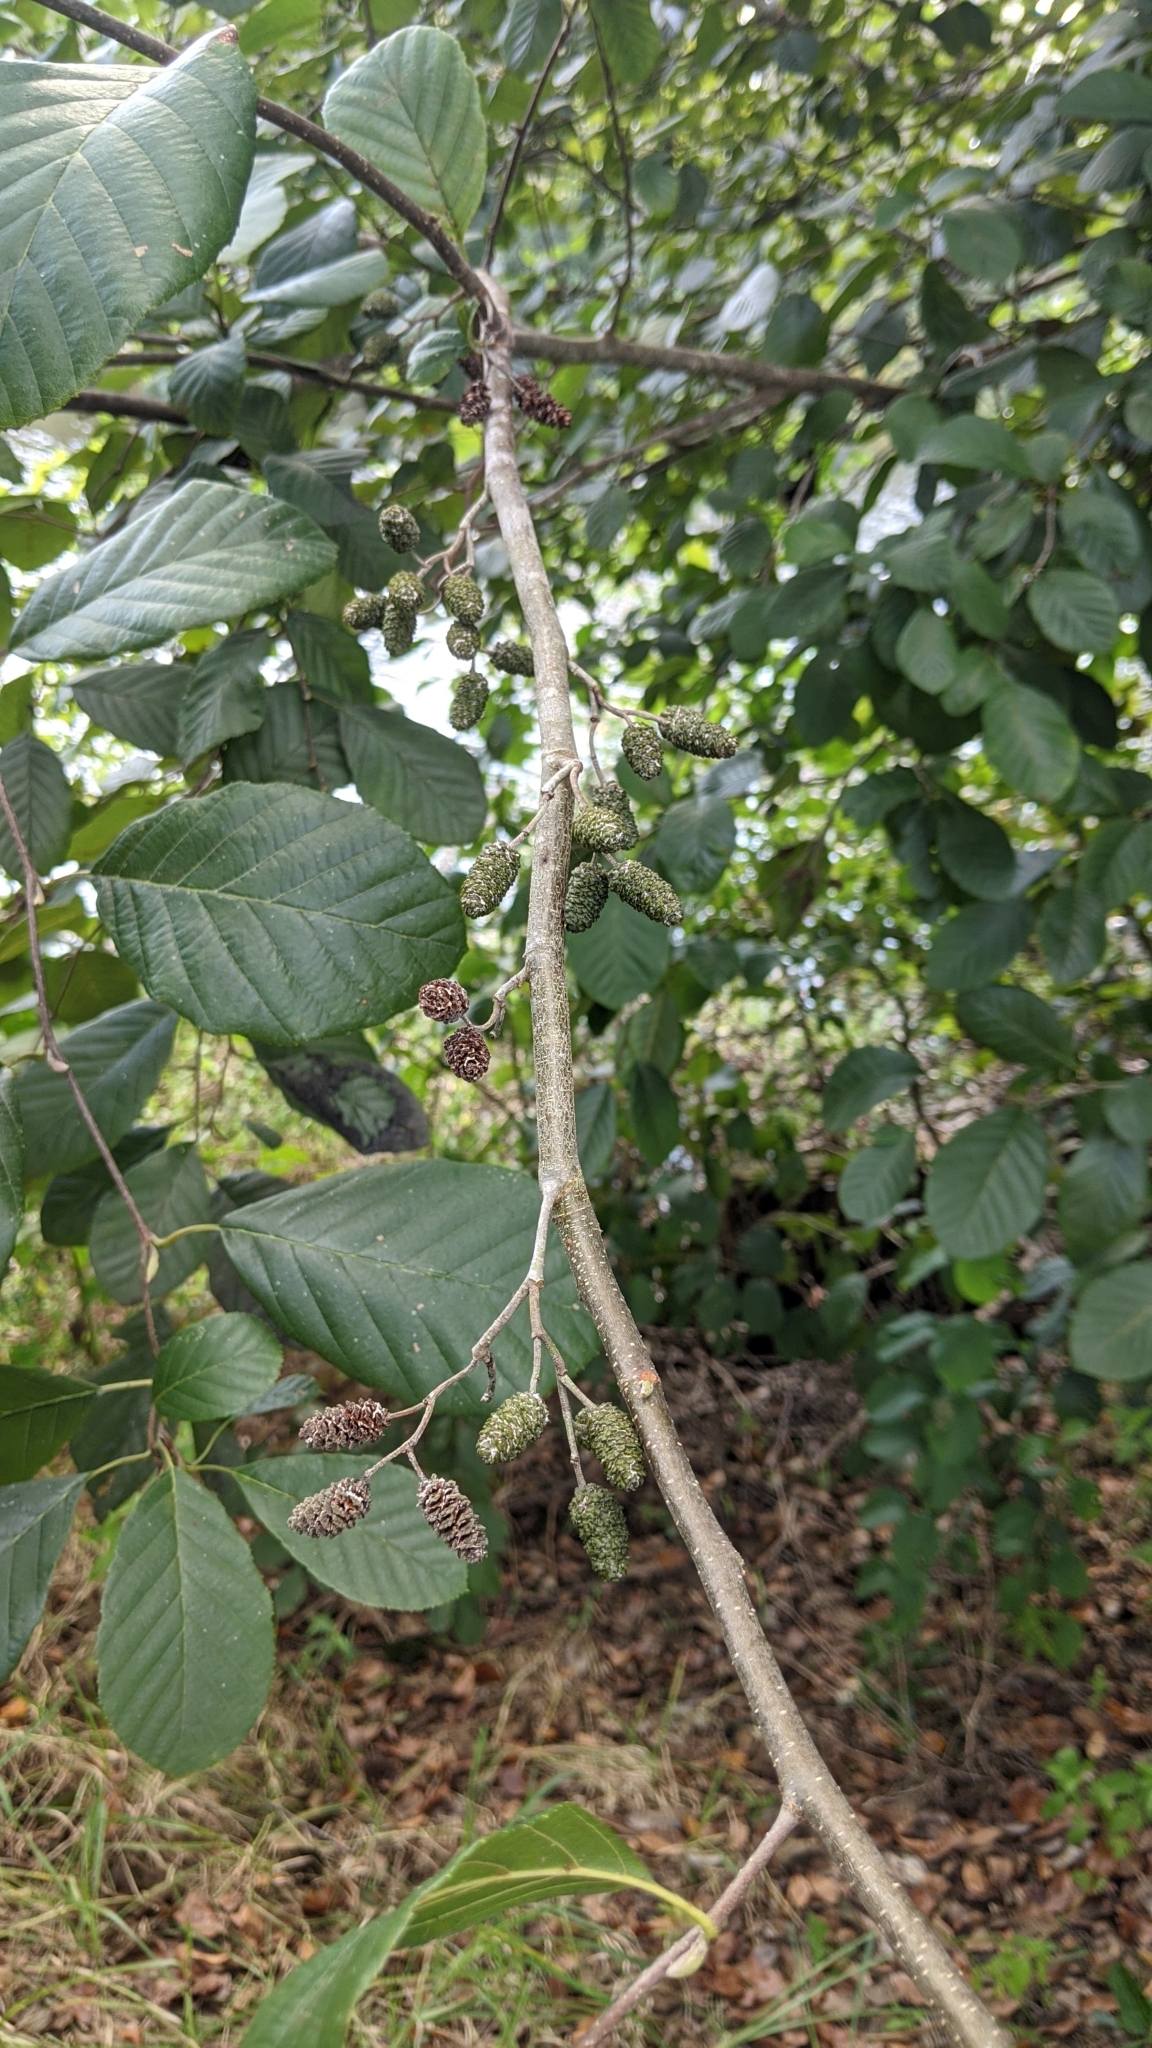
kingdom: Plantae
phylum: Tracheophyta
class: Magnoliopsida
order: Fagales
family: Betulaceae
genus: Alnus
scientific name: Alnus serrulata
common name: Hazel alder
